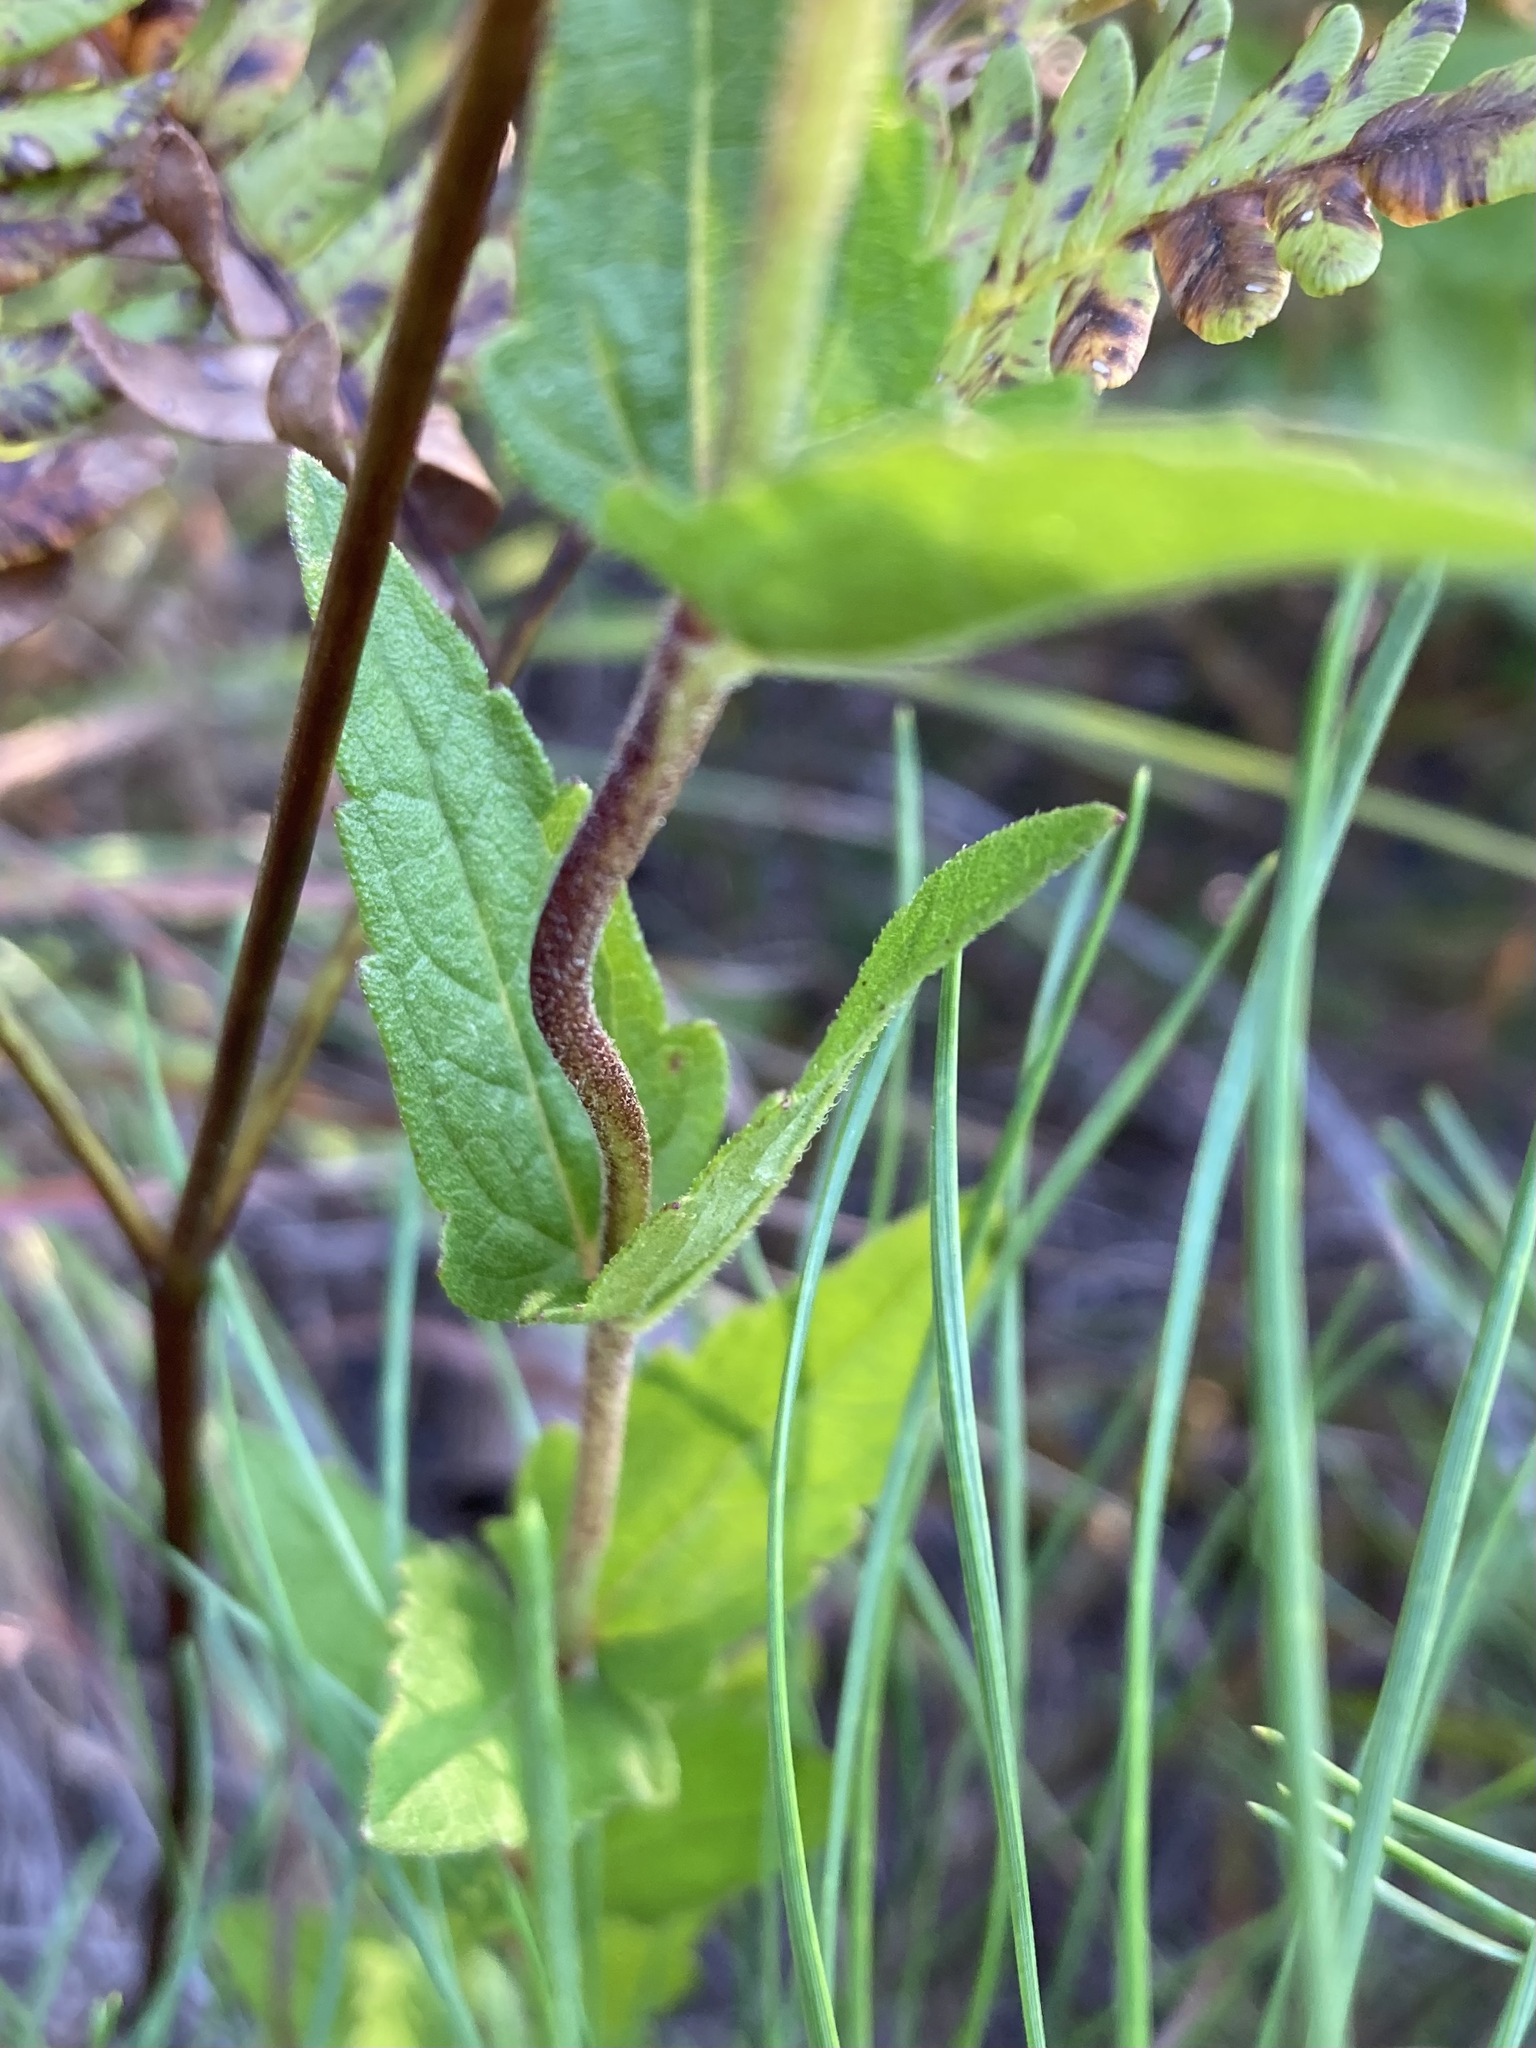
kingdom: Plantae
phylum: Tracheophyta
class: Magnoliopsida
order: Asterales
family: Asteraceae
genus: Eupatorium
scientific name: Eupatorium pilosum
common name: Rough boneset
